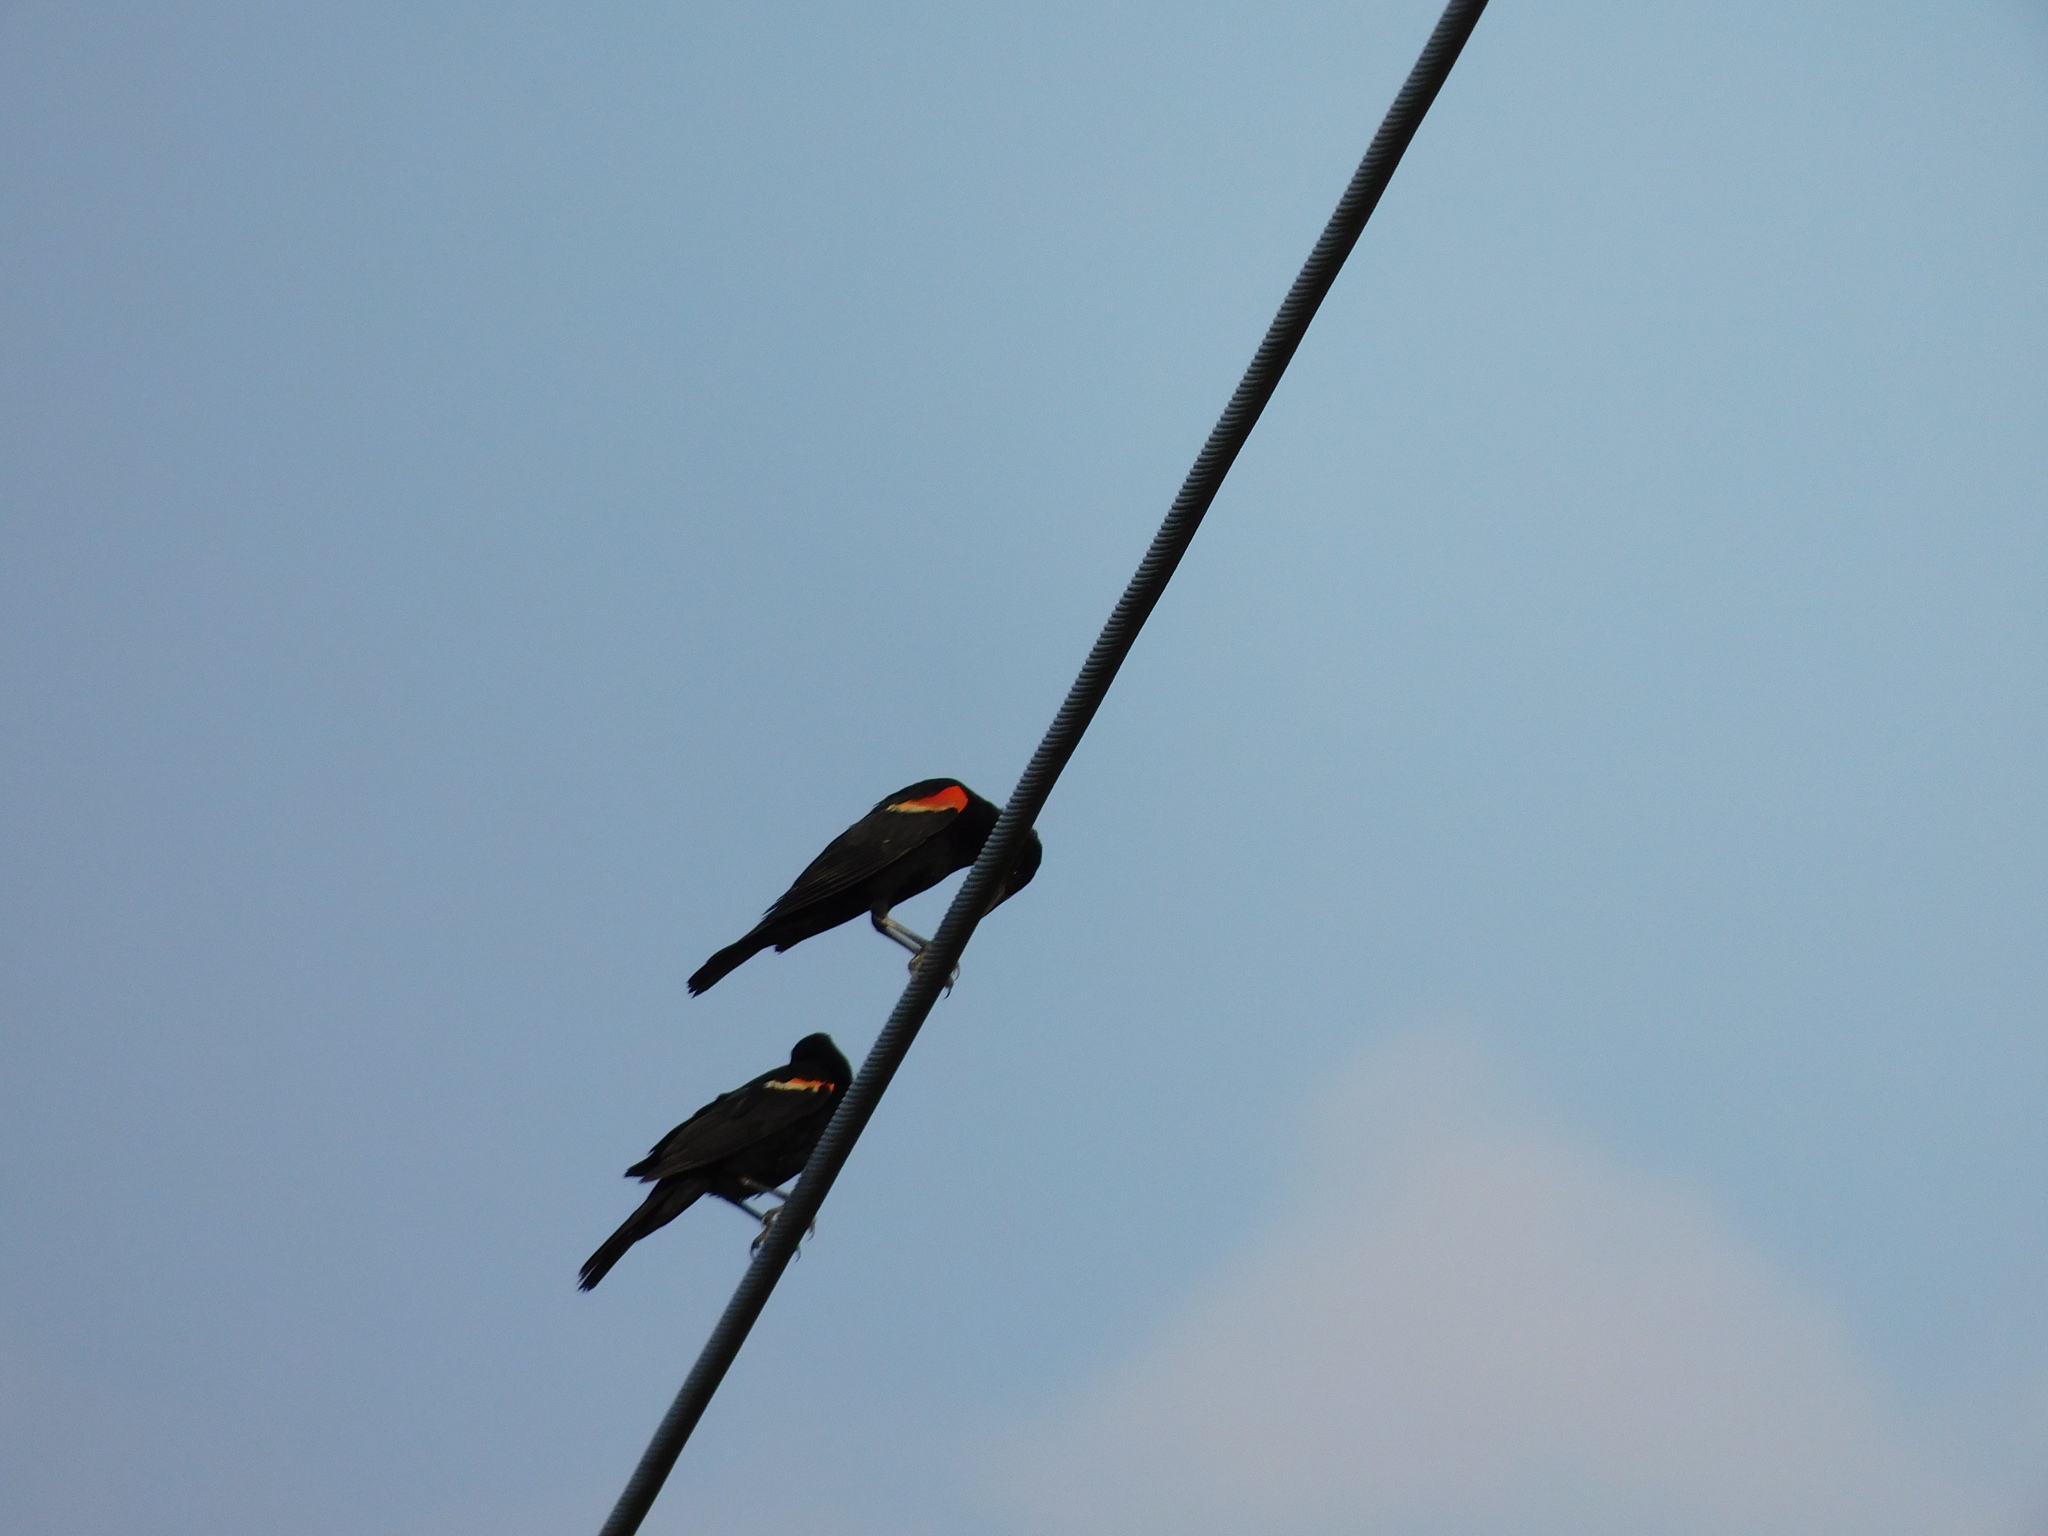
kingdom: Animalia
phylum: Chordata
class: Aves
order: Passeriformes
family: Icteridae
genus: Agelaius
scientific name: Agelaius phoeniceus
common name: Red-winged blackbird
